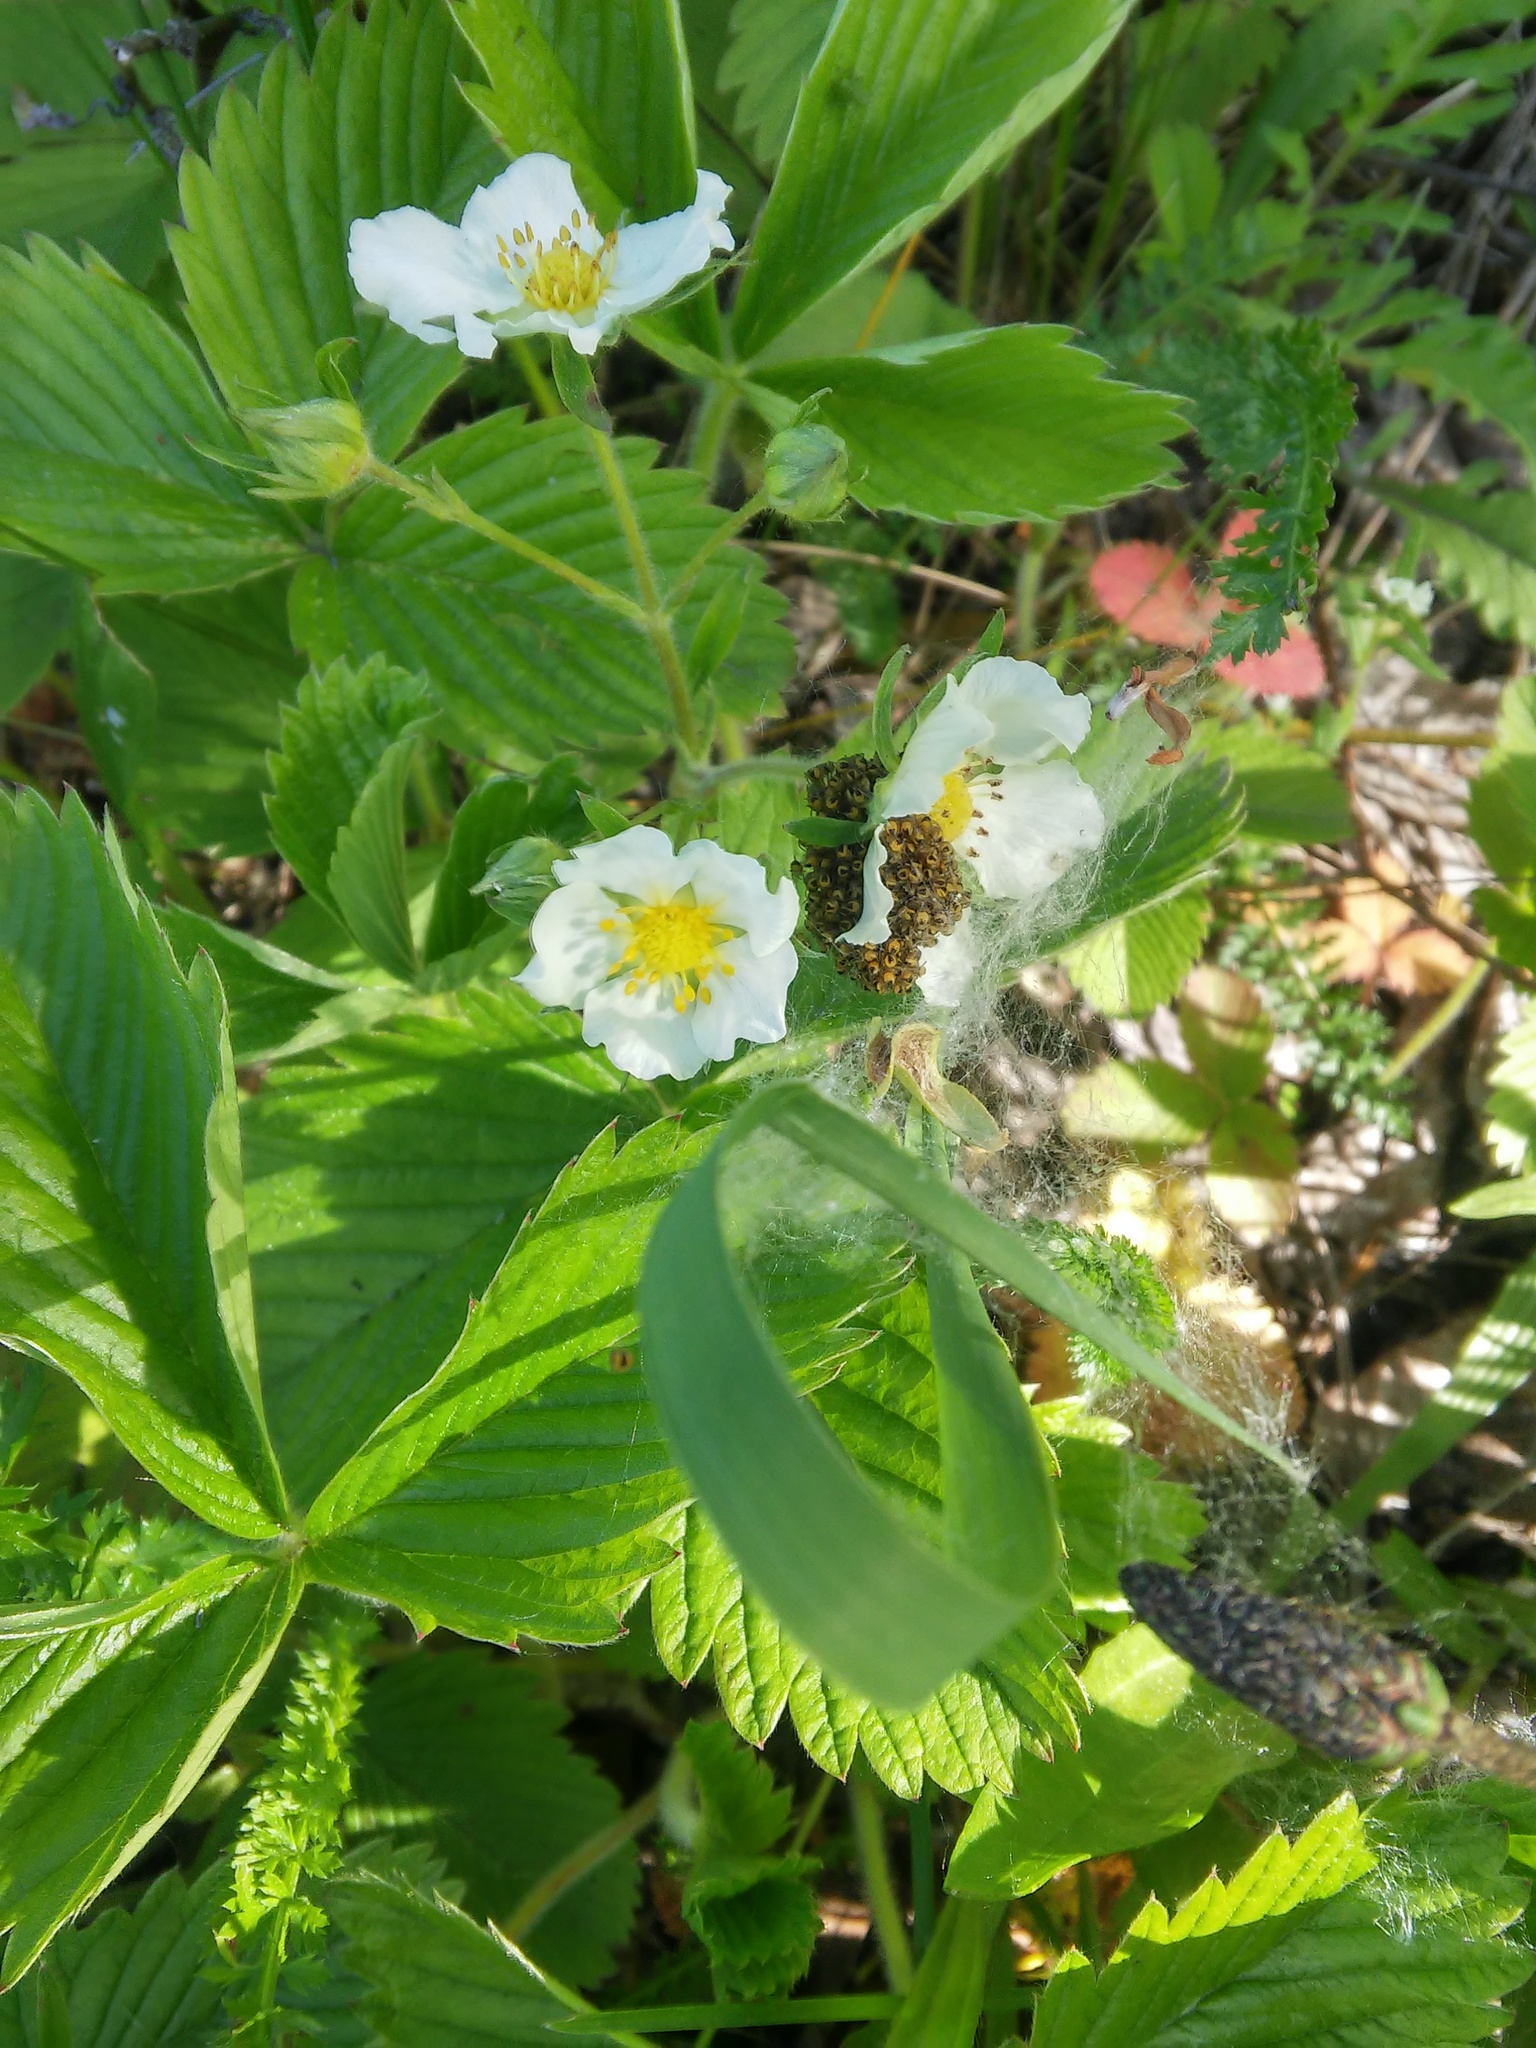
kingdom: Plantae
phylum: Tracheophyta
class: Magnoliopsida
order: Rosales
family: Rosaceae
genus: Fragaria
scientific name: Fragaria viridis
